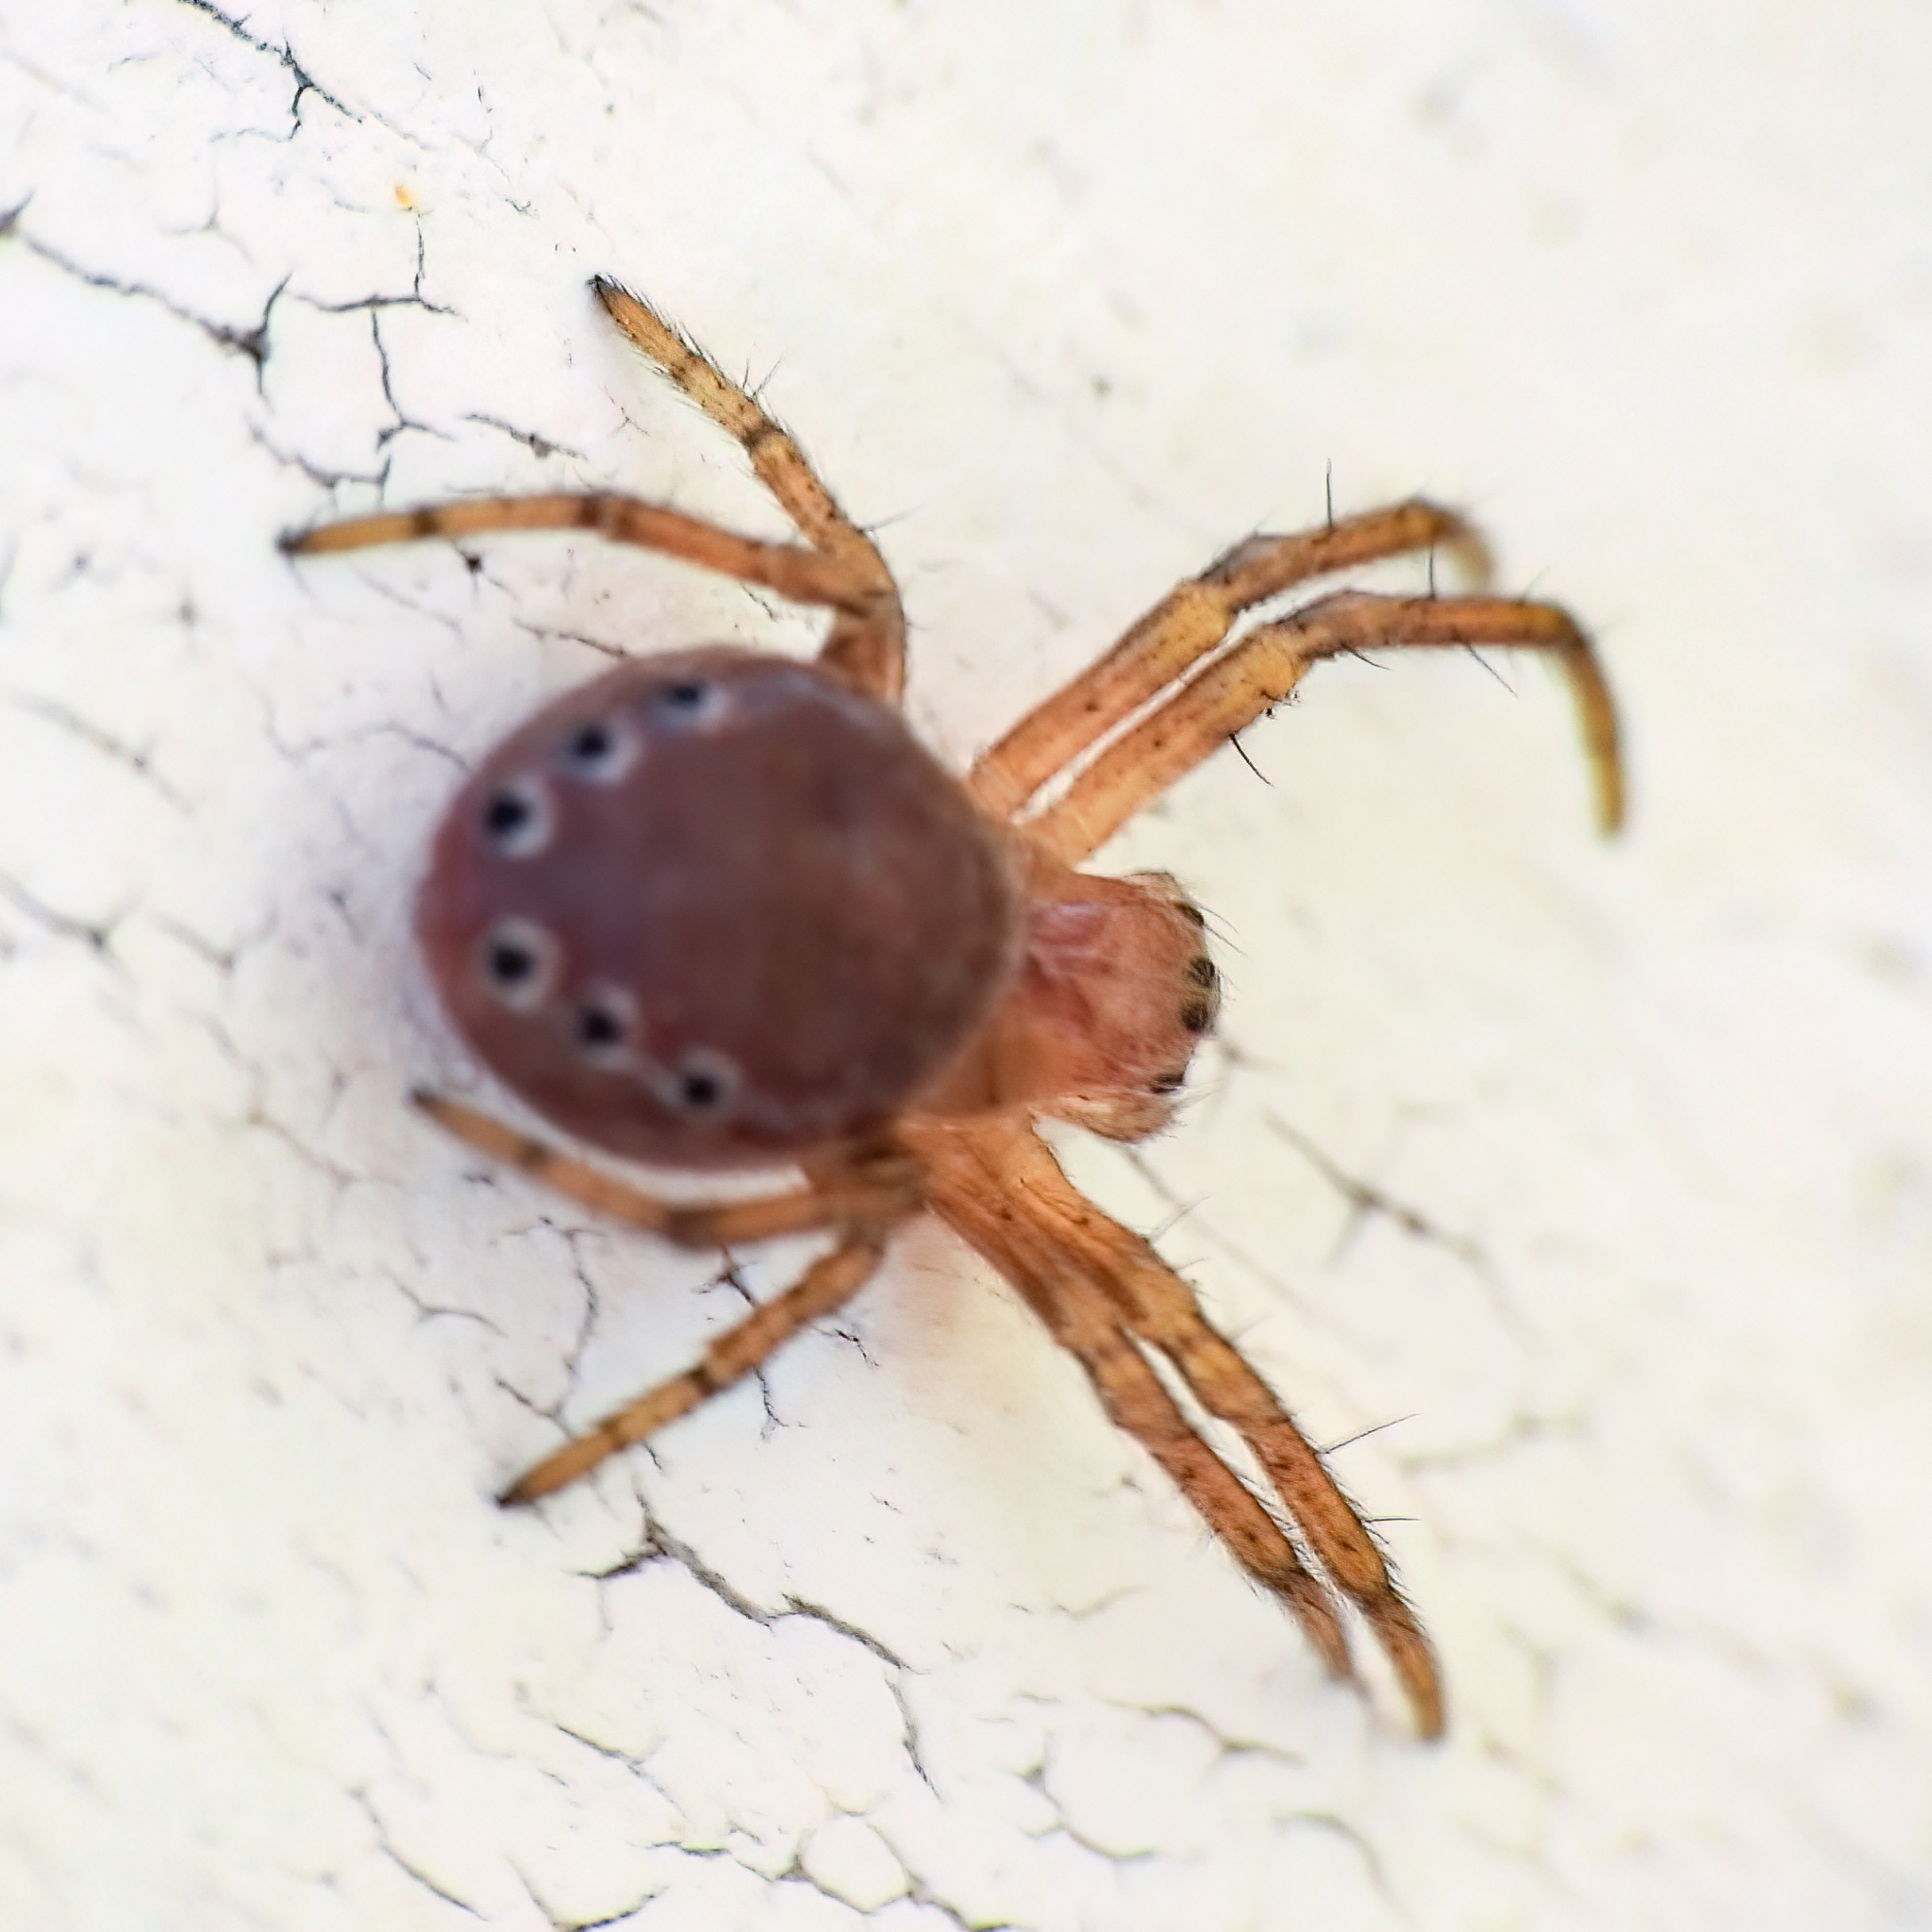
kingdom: Animalia
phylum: Arthropoda
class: Arachnida
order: Araneae
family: Araneidae
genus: Araniella
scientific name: Araniella displicata
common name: Sixspotted orb weaver
